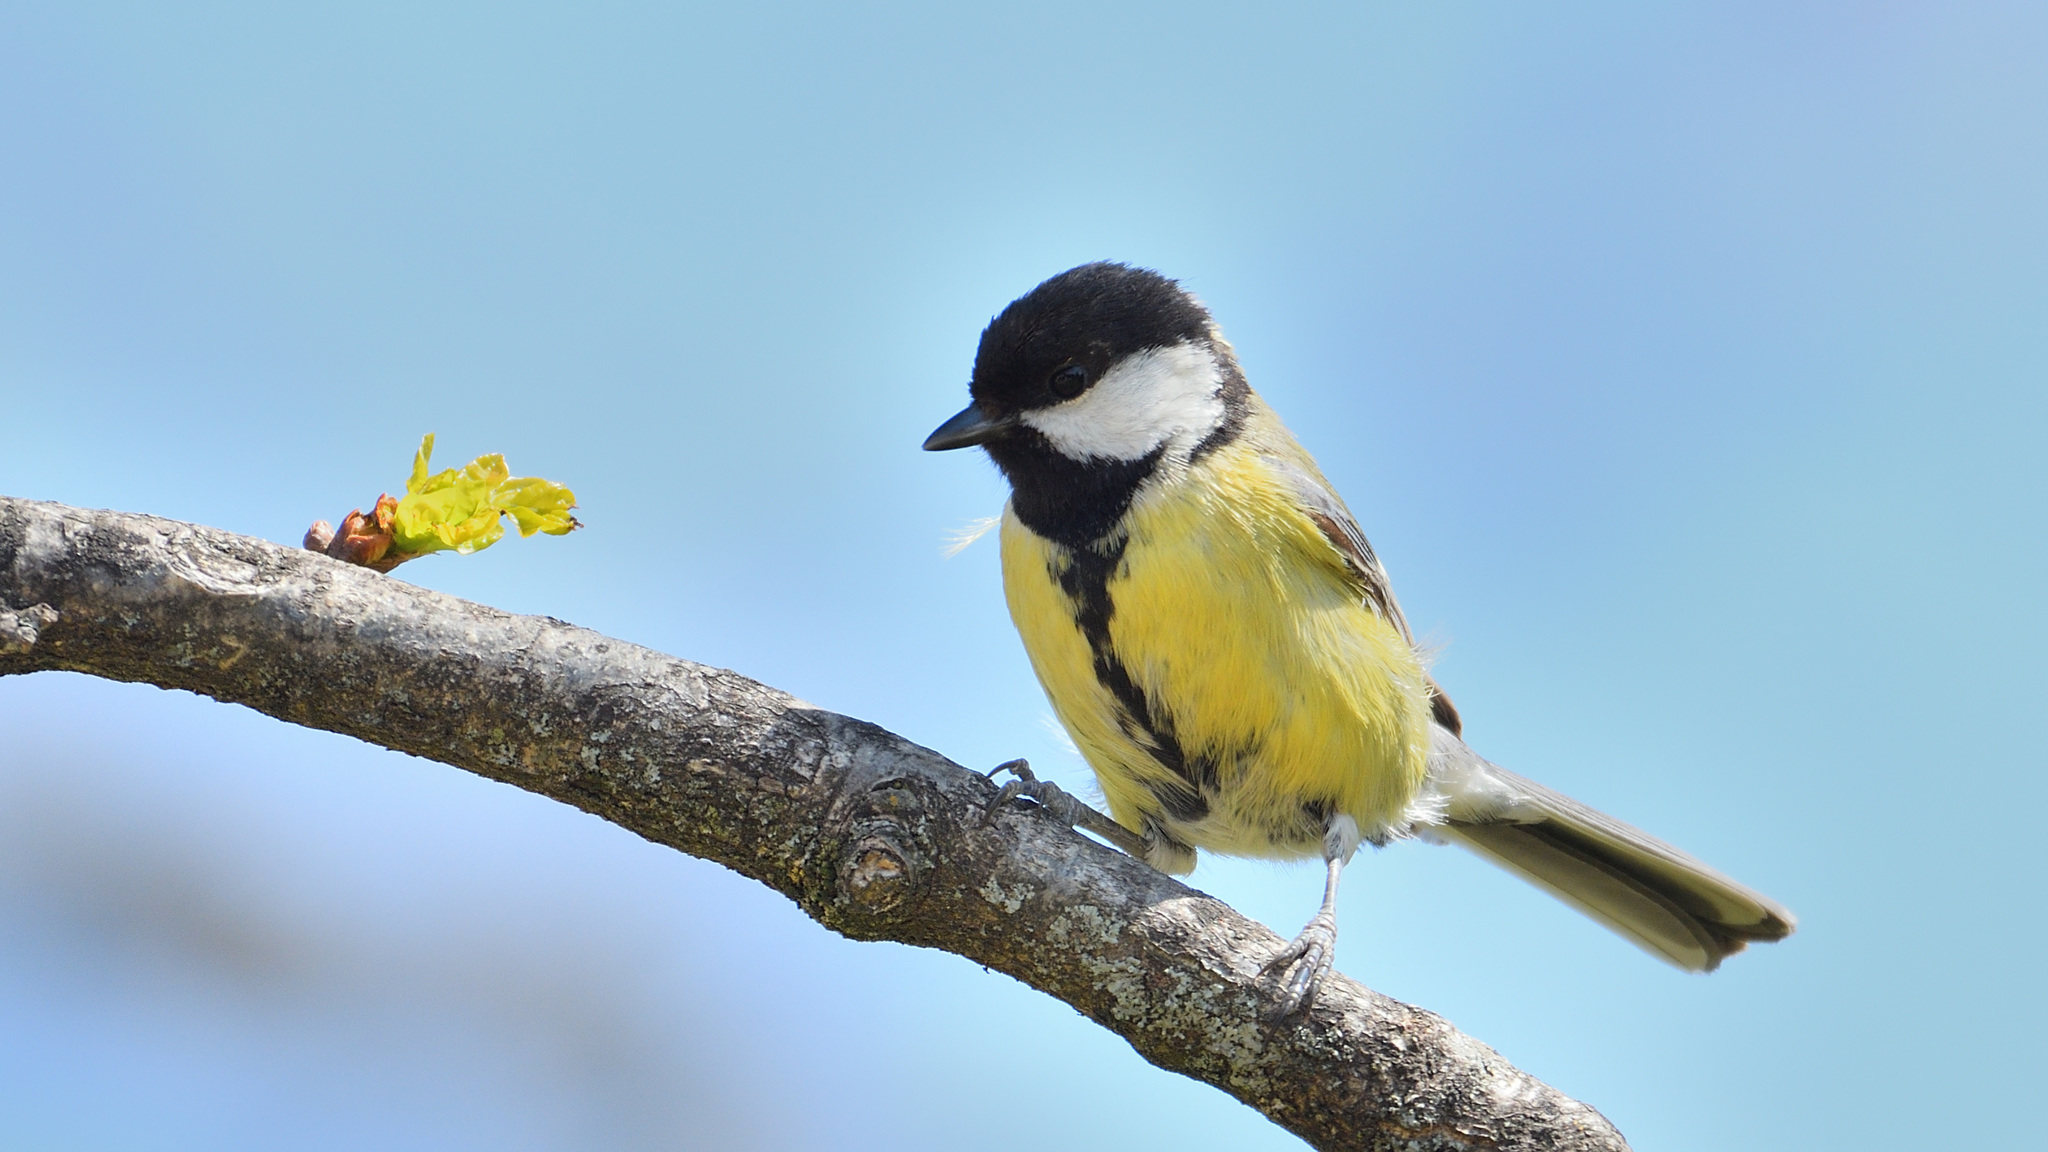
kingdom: Animalia
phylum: Chordata
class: Aves
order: Passeriformes
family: Paridae
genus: Parus
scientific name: Parus major
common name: Great tit
